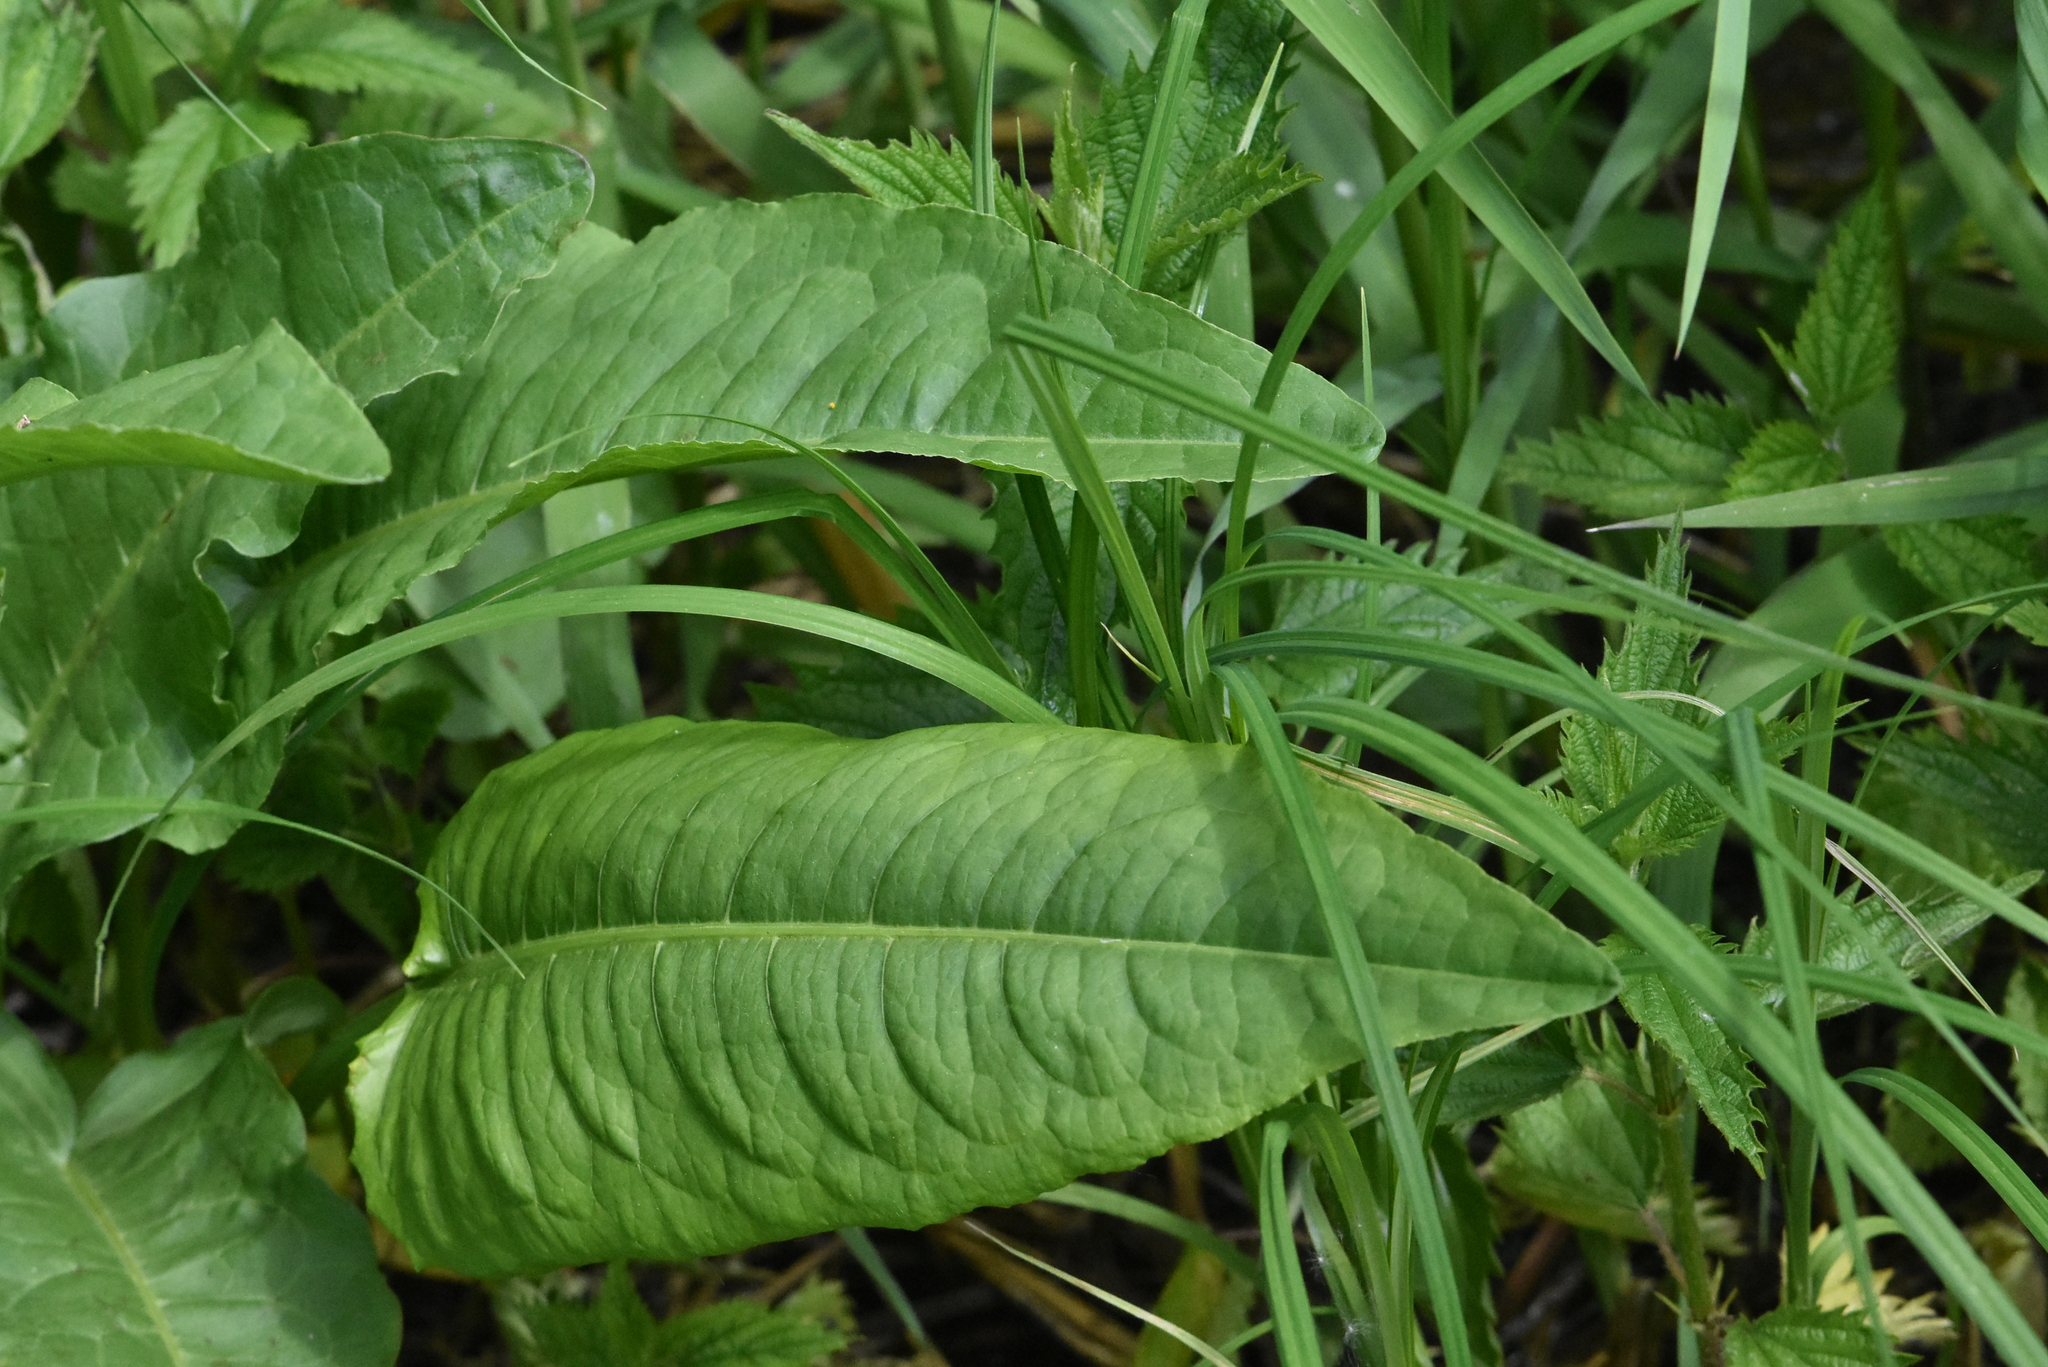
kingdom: Plantae
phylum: Tracheophyta
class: Magnoliopsida
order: Caryophyllales
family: Polygonaceae
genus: Rumex
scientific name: Rumex aquaticus
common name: Scottish dock
